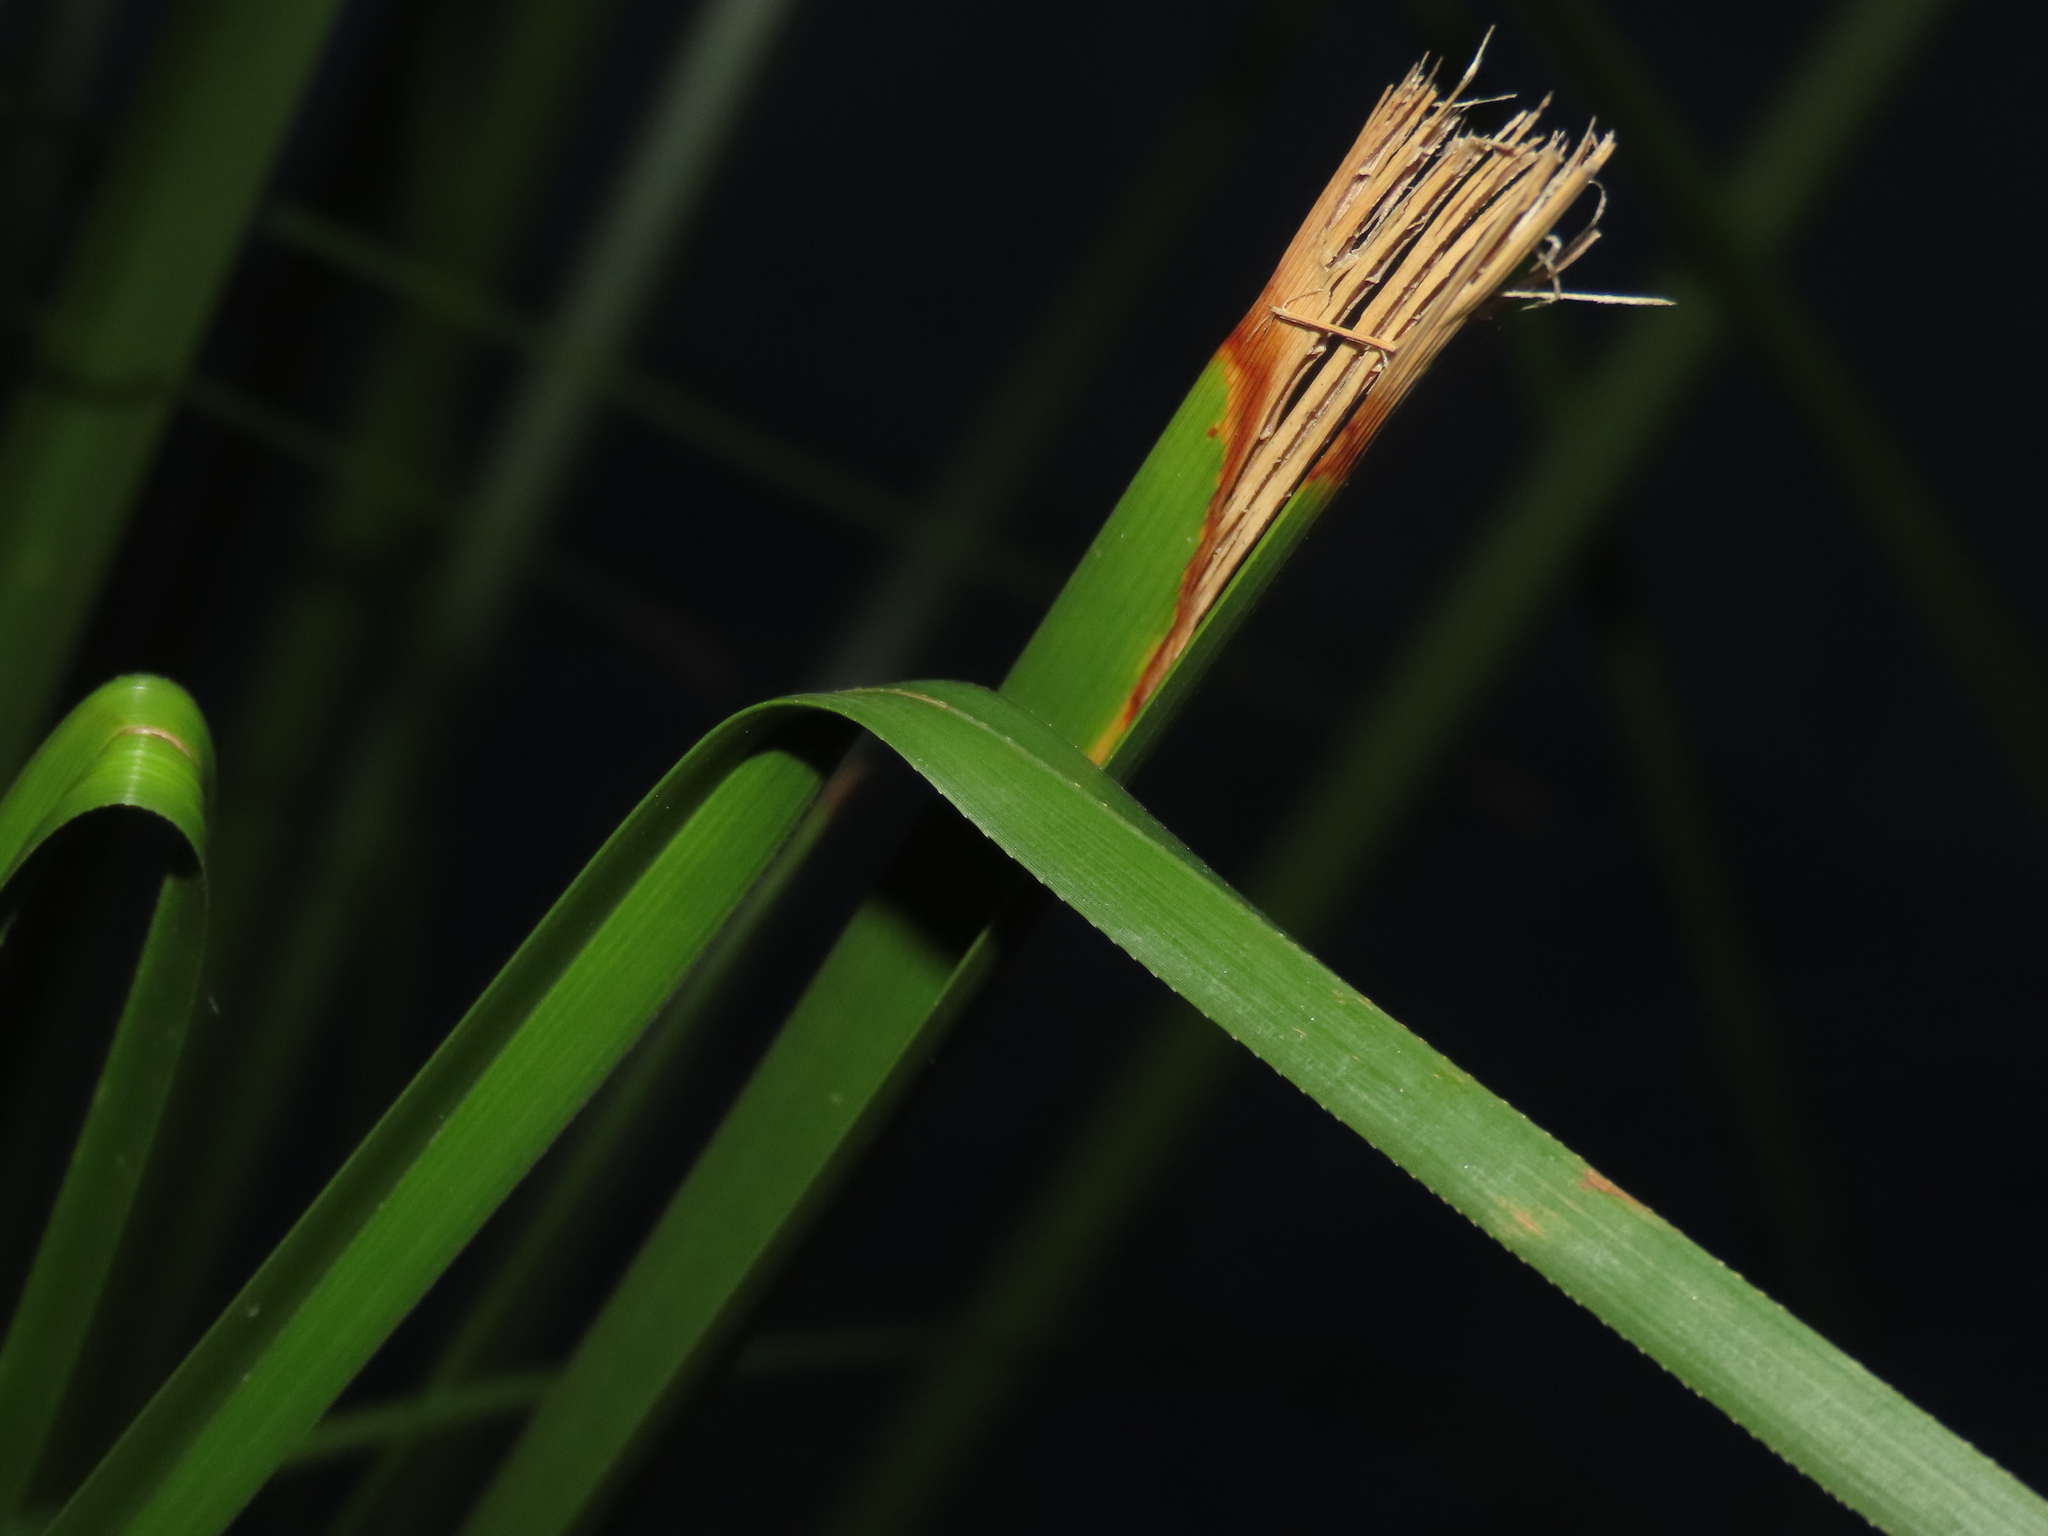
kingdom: Plantae
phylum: Tracheophyta
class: Liliopsida
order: Poales
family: Cyperaceae
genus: Cladium
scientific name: Cladium mariscus
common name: Great fen-sedge
